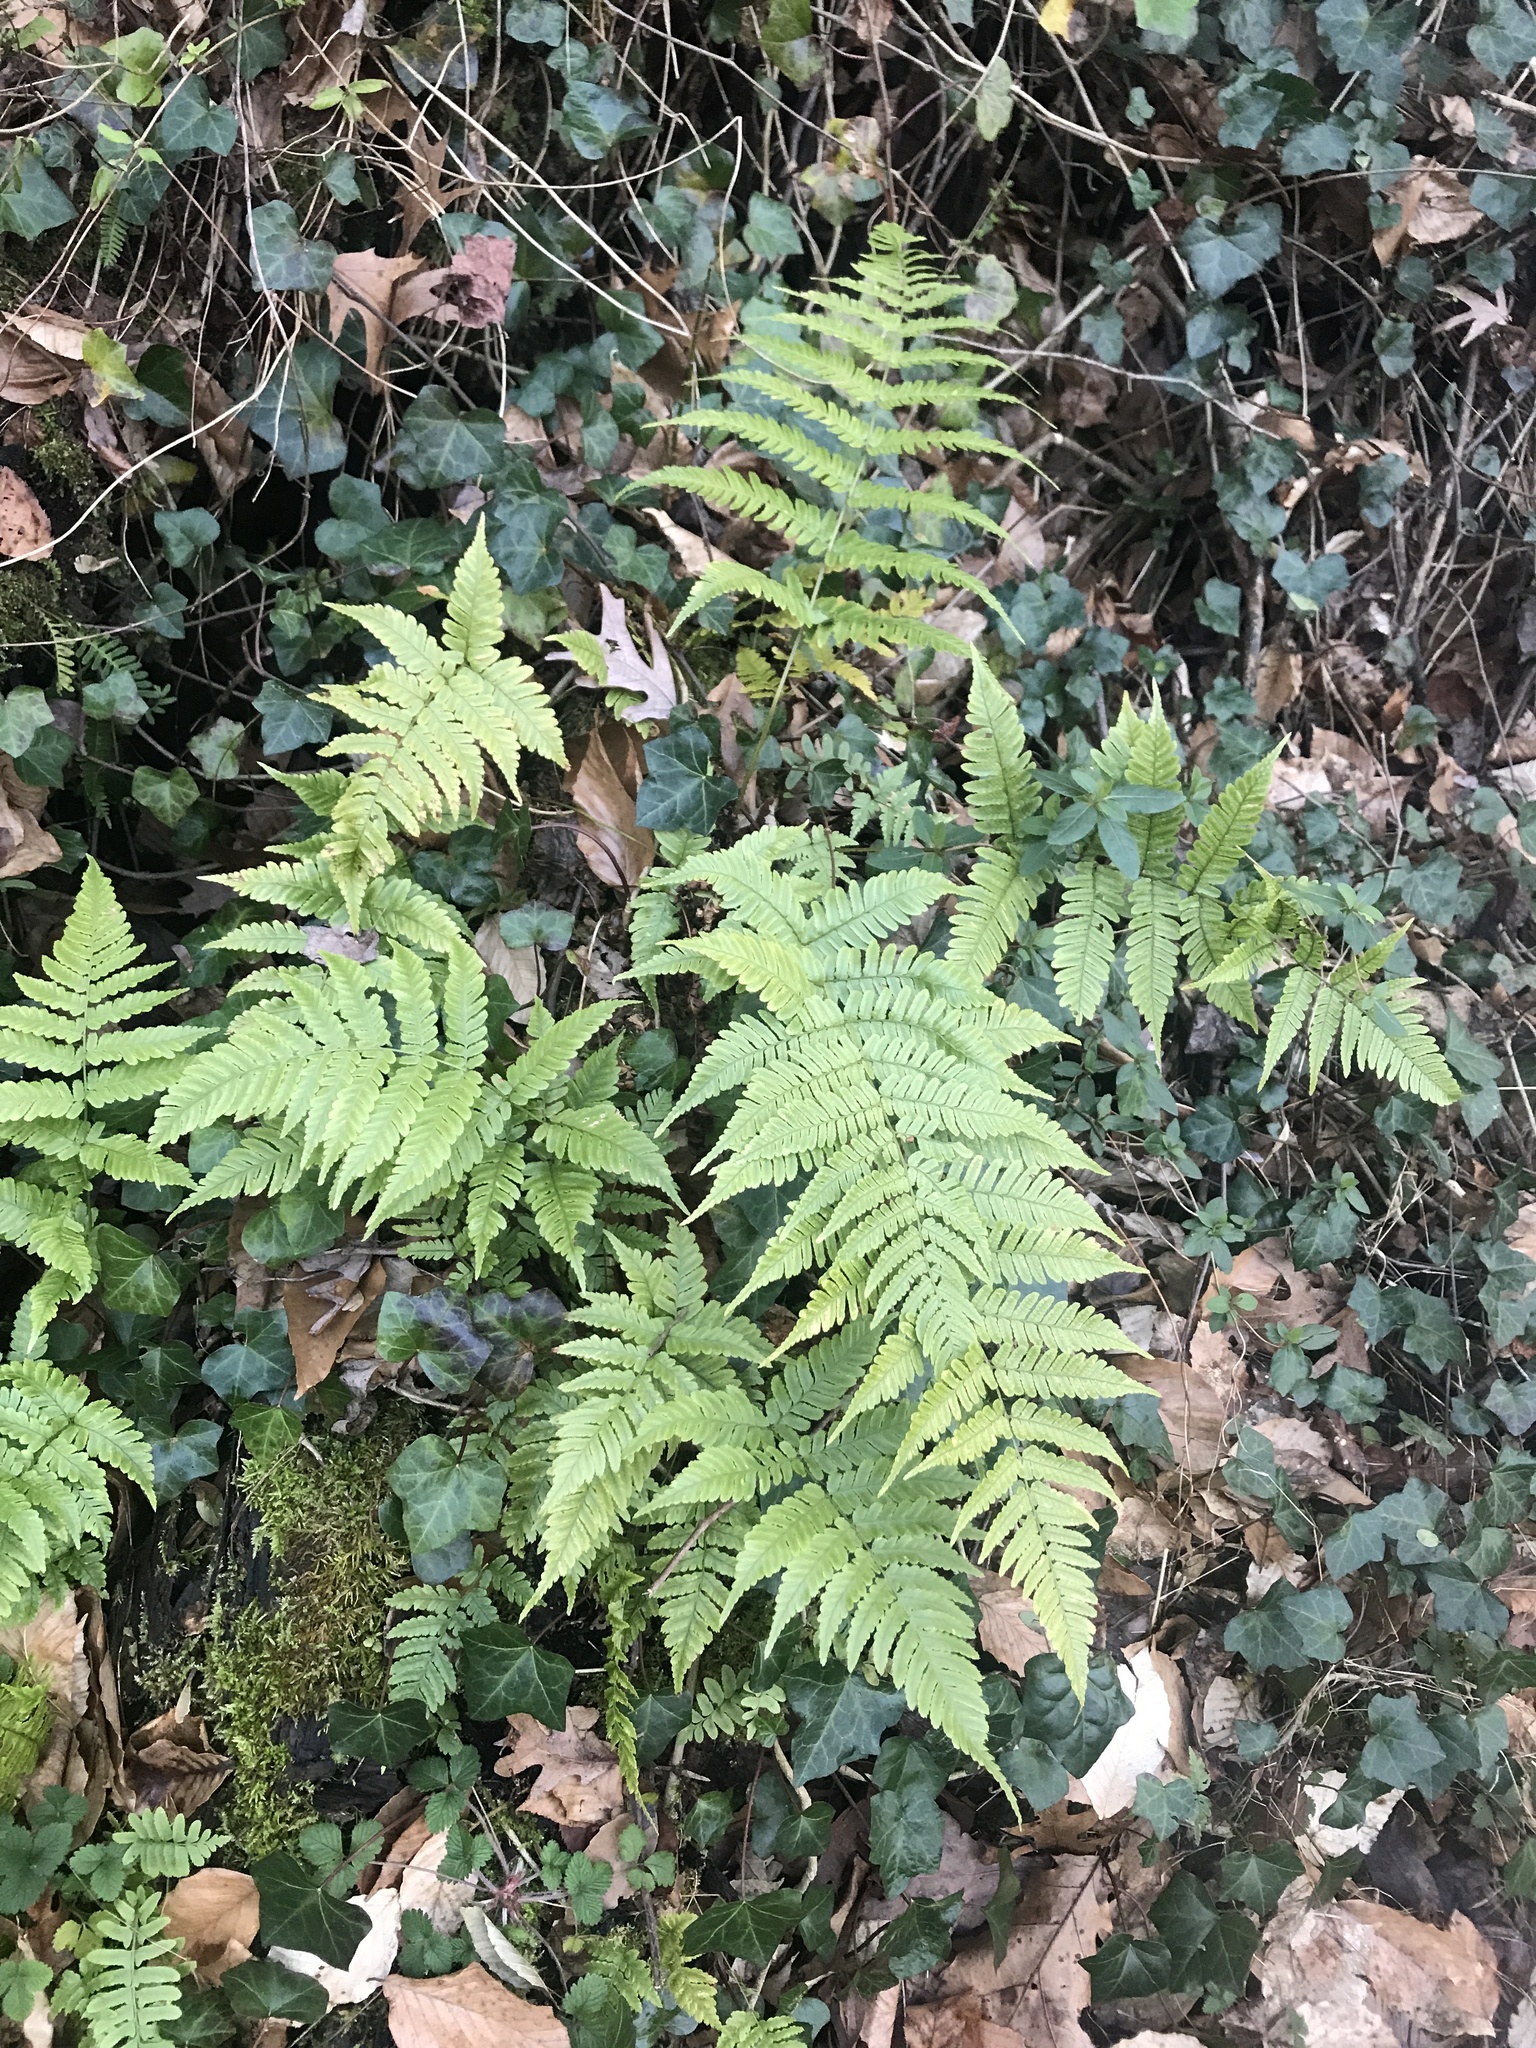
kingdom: Plantae
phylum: Tracheophyta
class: Polypodiopsida
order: Polypodiales
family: Dryopteridaceae
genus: Dryopteris
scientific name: Dryopteris erythrosora
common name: Autumn fern
